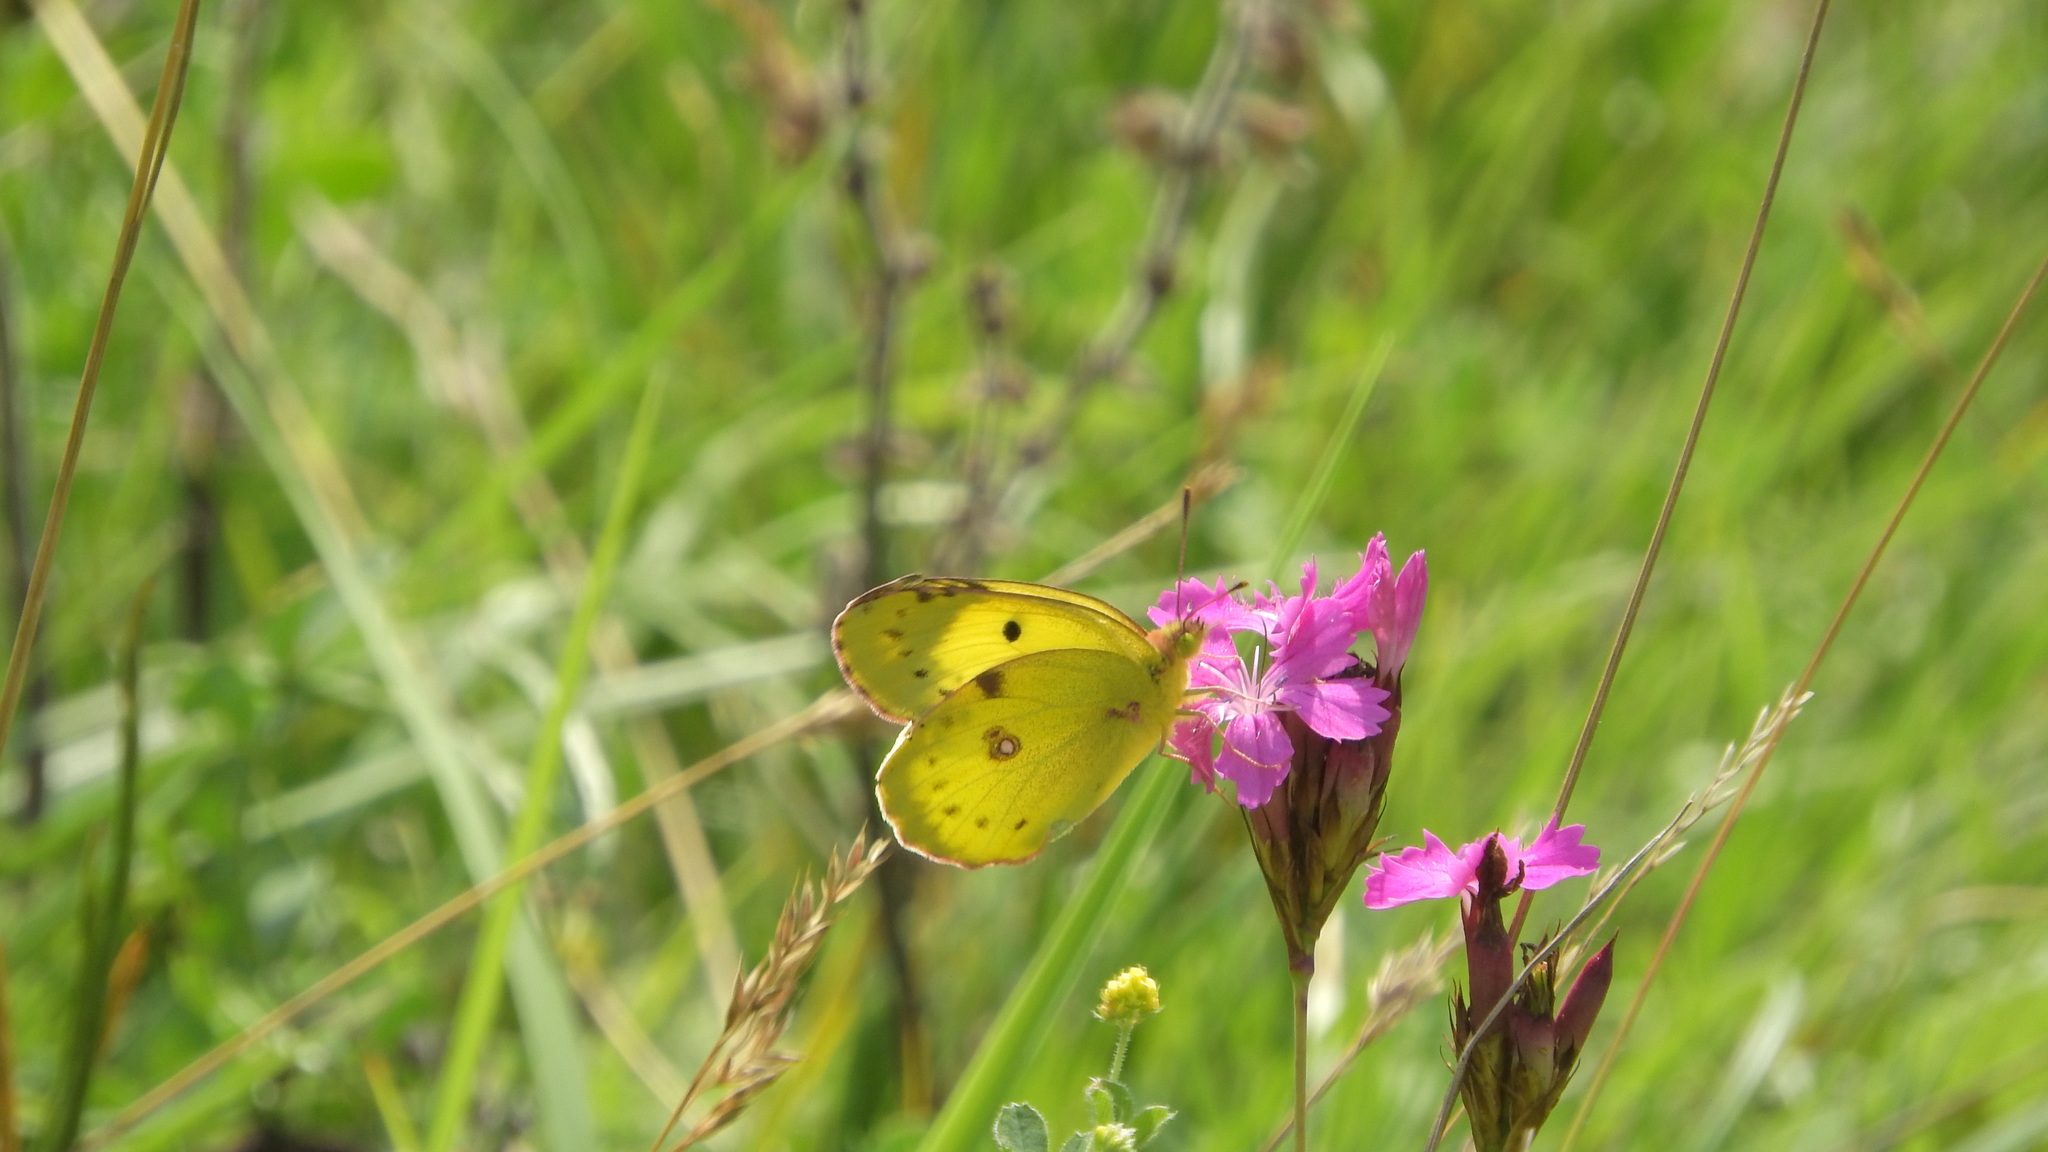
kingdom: Animalia
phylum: Arthropoda
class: Insecta
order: Lepidoptera
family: Pieridae
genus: Colias
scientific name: Colias alfacariensis
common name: Berger's clouded yellow
